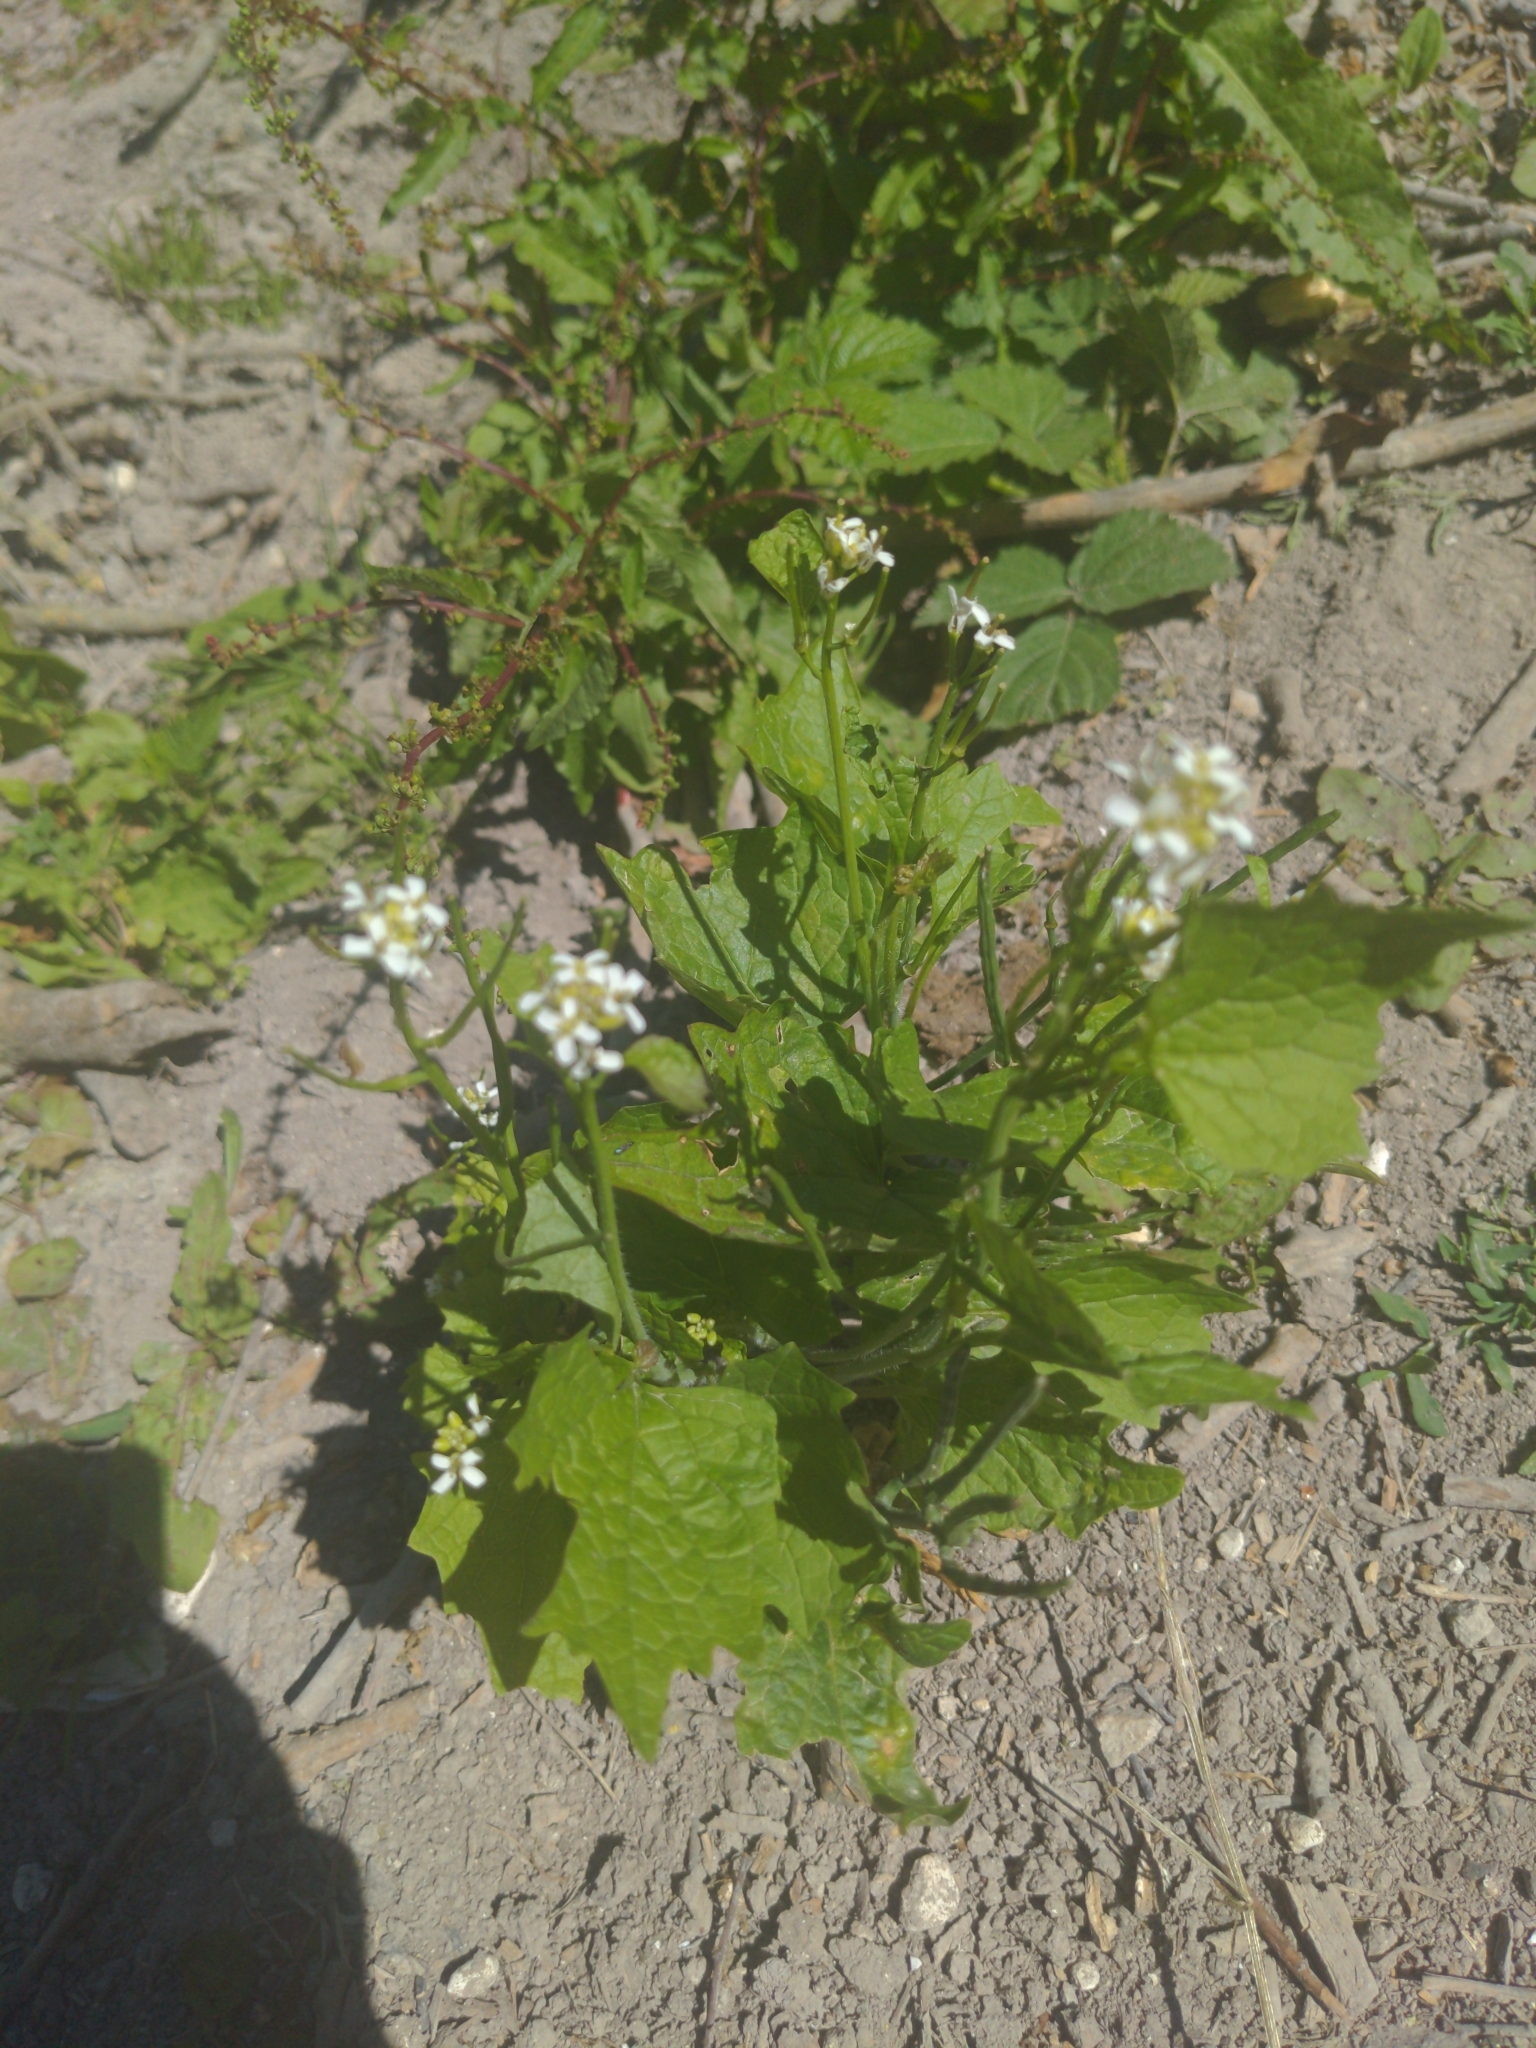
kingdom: Plantae
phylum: Tracheophyta
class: Magnoliopsida
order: Brassicales
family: Brassicaceae
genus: Alliaria
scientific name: Alliaria petiolata
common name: Garlic mustard
